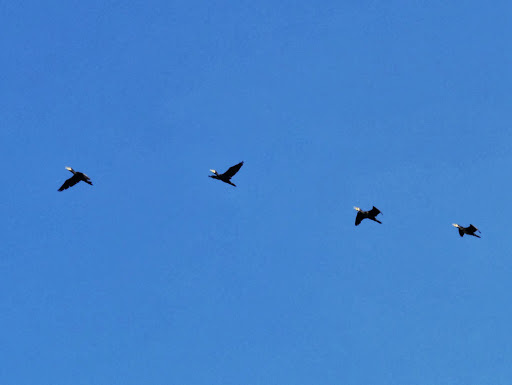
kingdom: Animalia
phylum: Chordata
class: Aves
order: Suliformes
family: Phalacrocoracidae
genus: Phalacrocorax
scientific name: Phalacrocorax carbo
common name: Great cormorant
